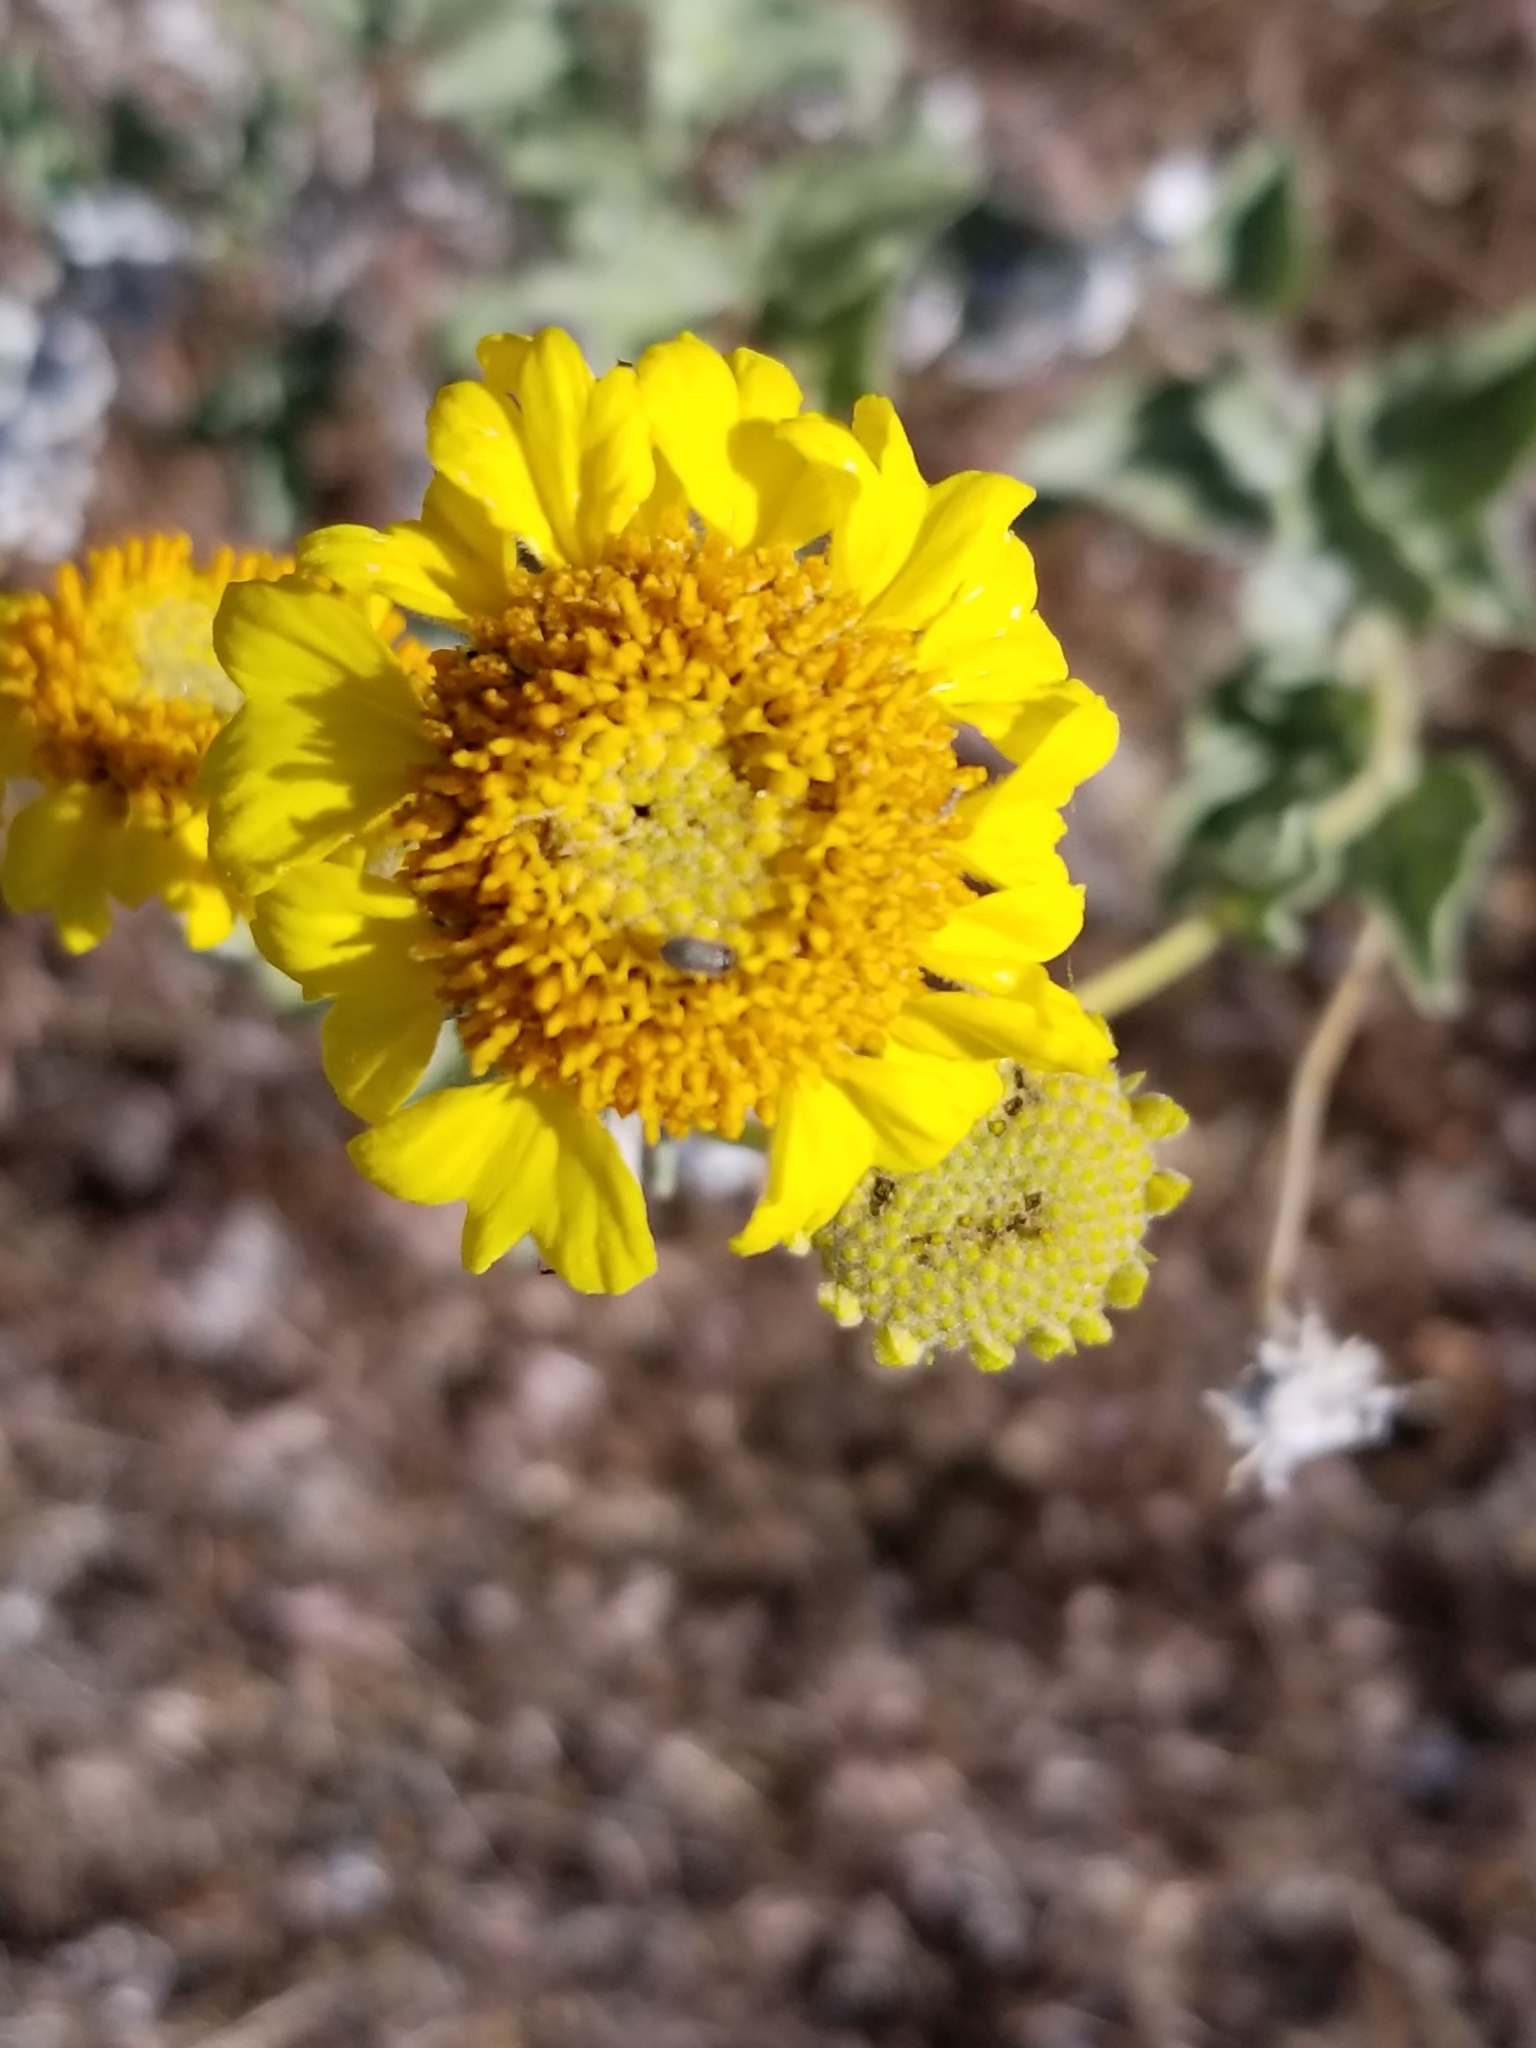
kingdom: Plantae
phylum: Tracheophyta
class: Magnoliopsida
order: Asterales
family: Asteraceae
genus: Encelia
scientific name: Encelia actoni
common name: Acton encelia
